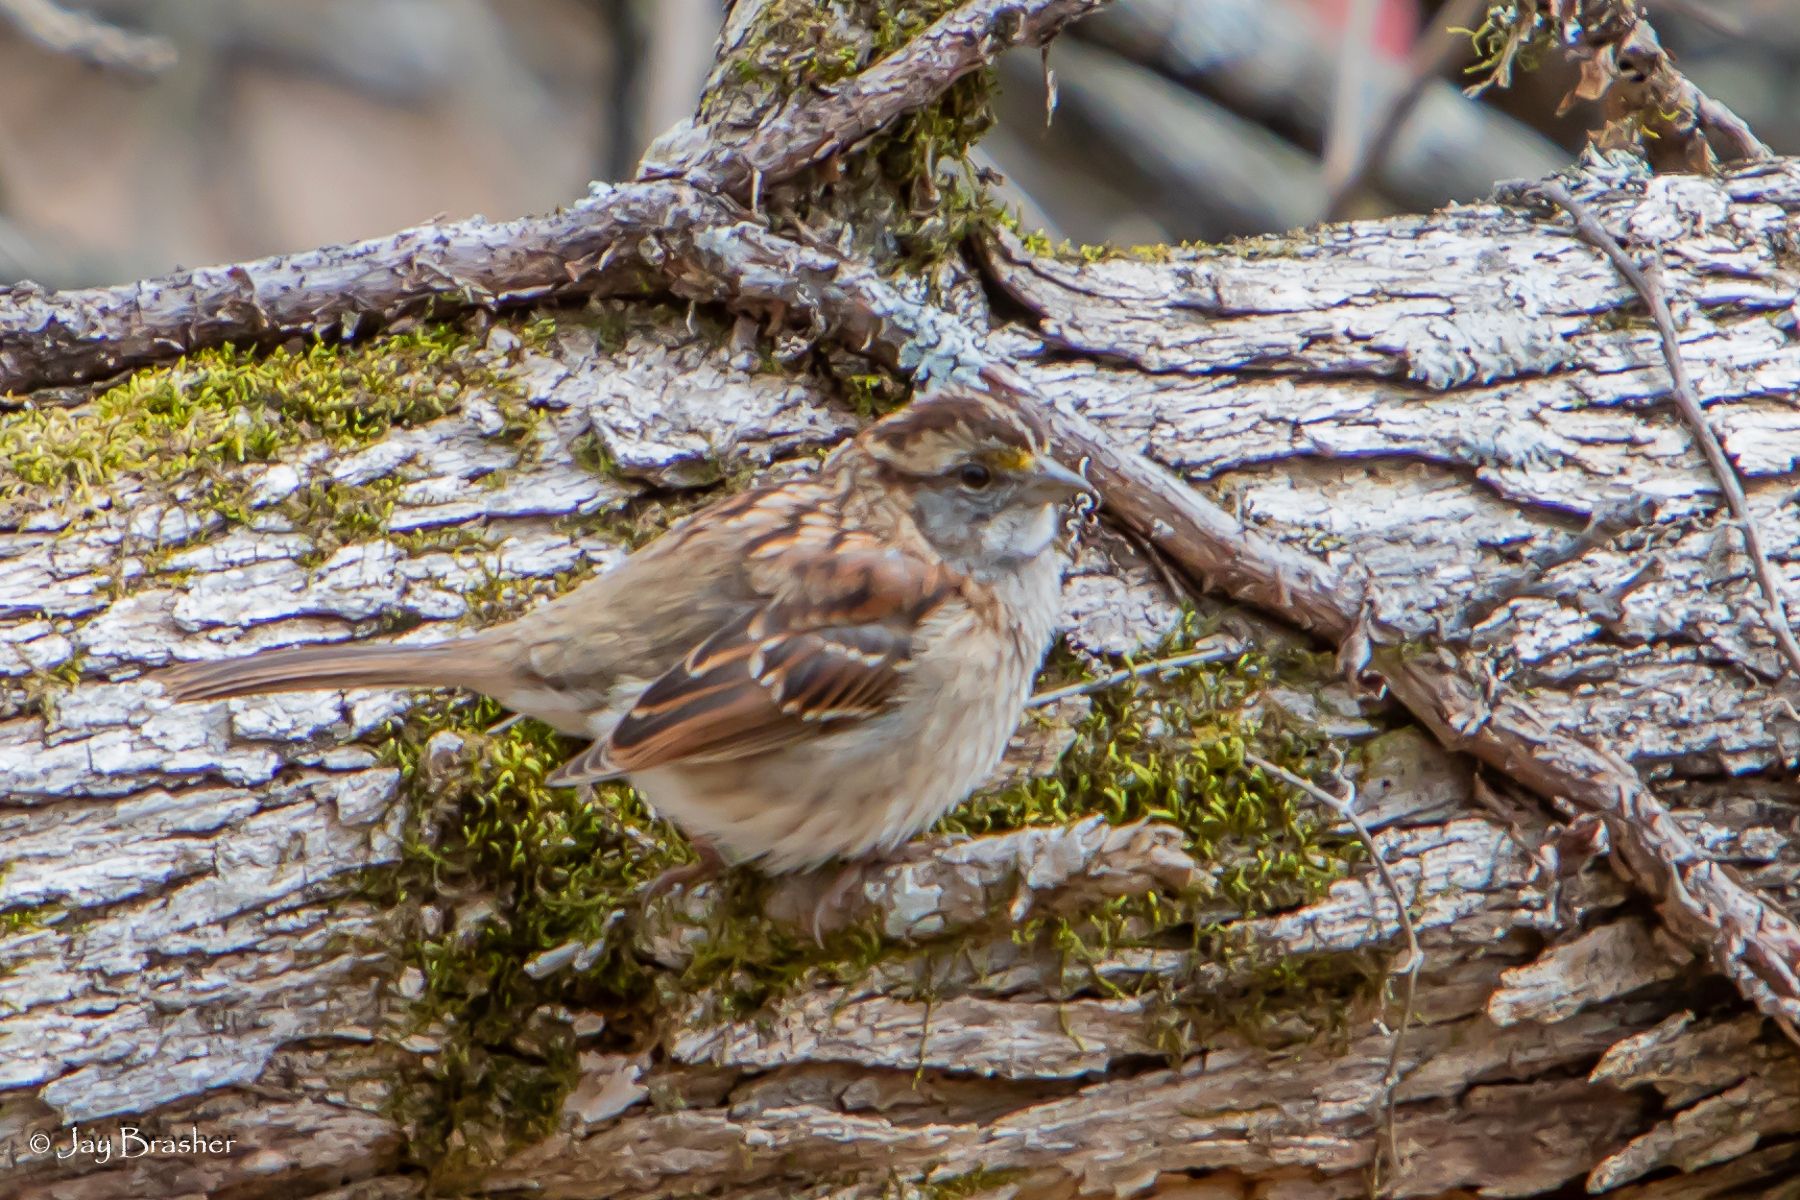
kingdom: Animalia
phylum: Chordata
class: Aves
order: Passeriformes
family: Passerellidae
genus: Zonotrichia
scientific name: Zonotrichia albicollis
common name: White-throated sparrow
